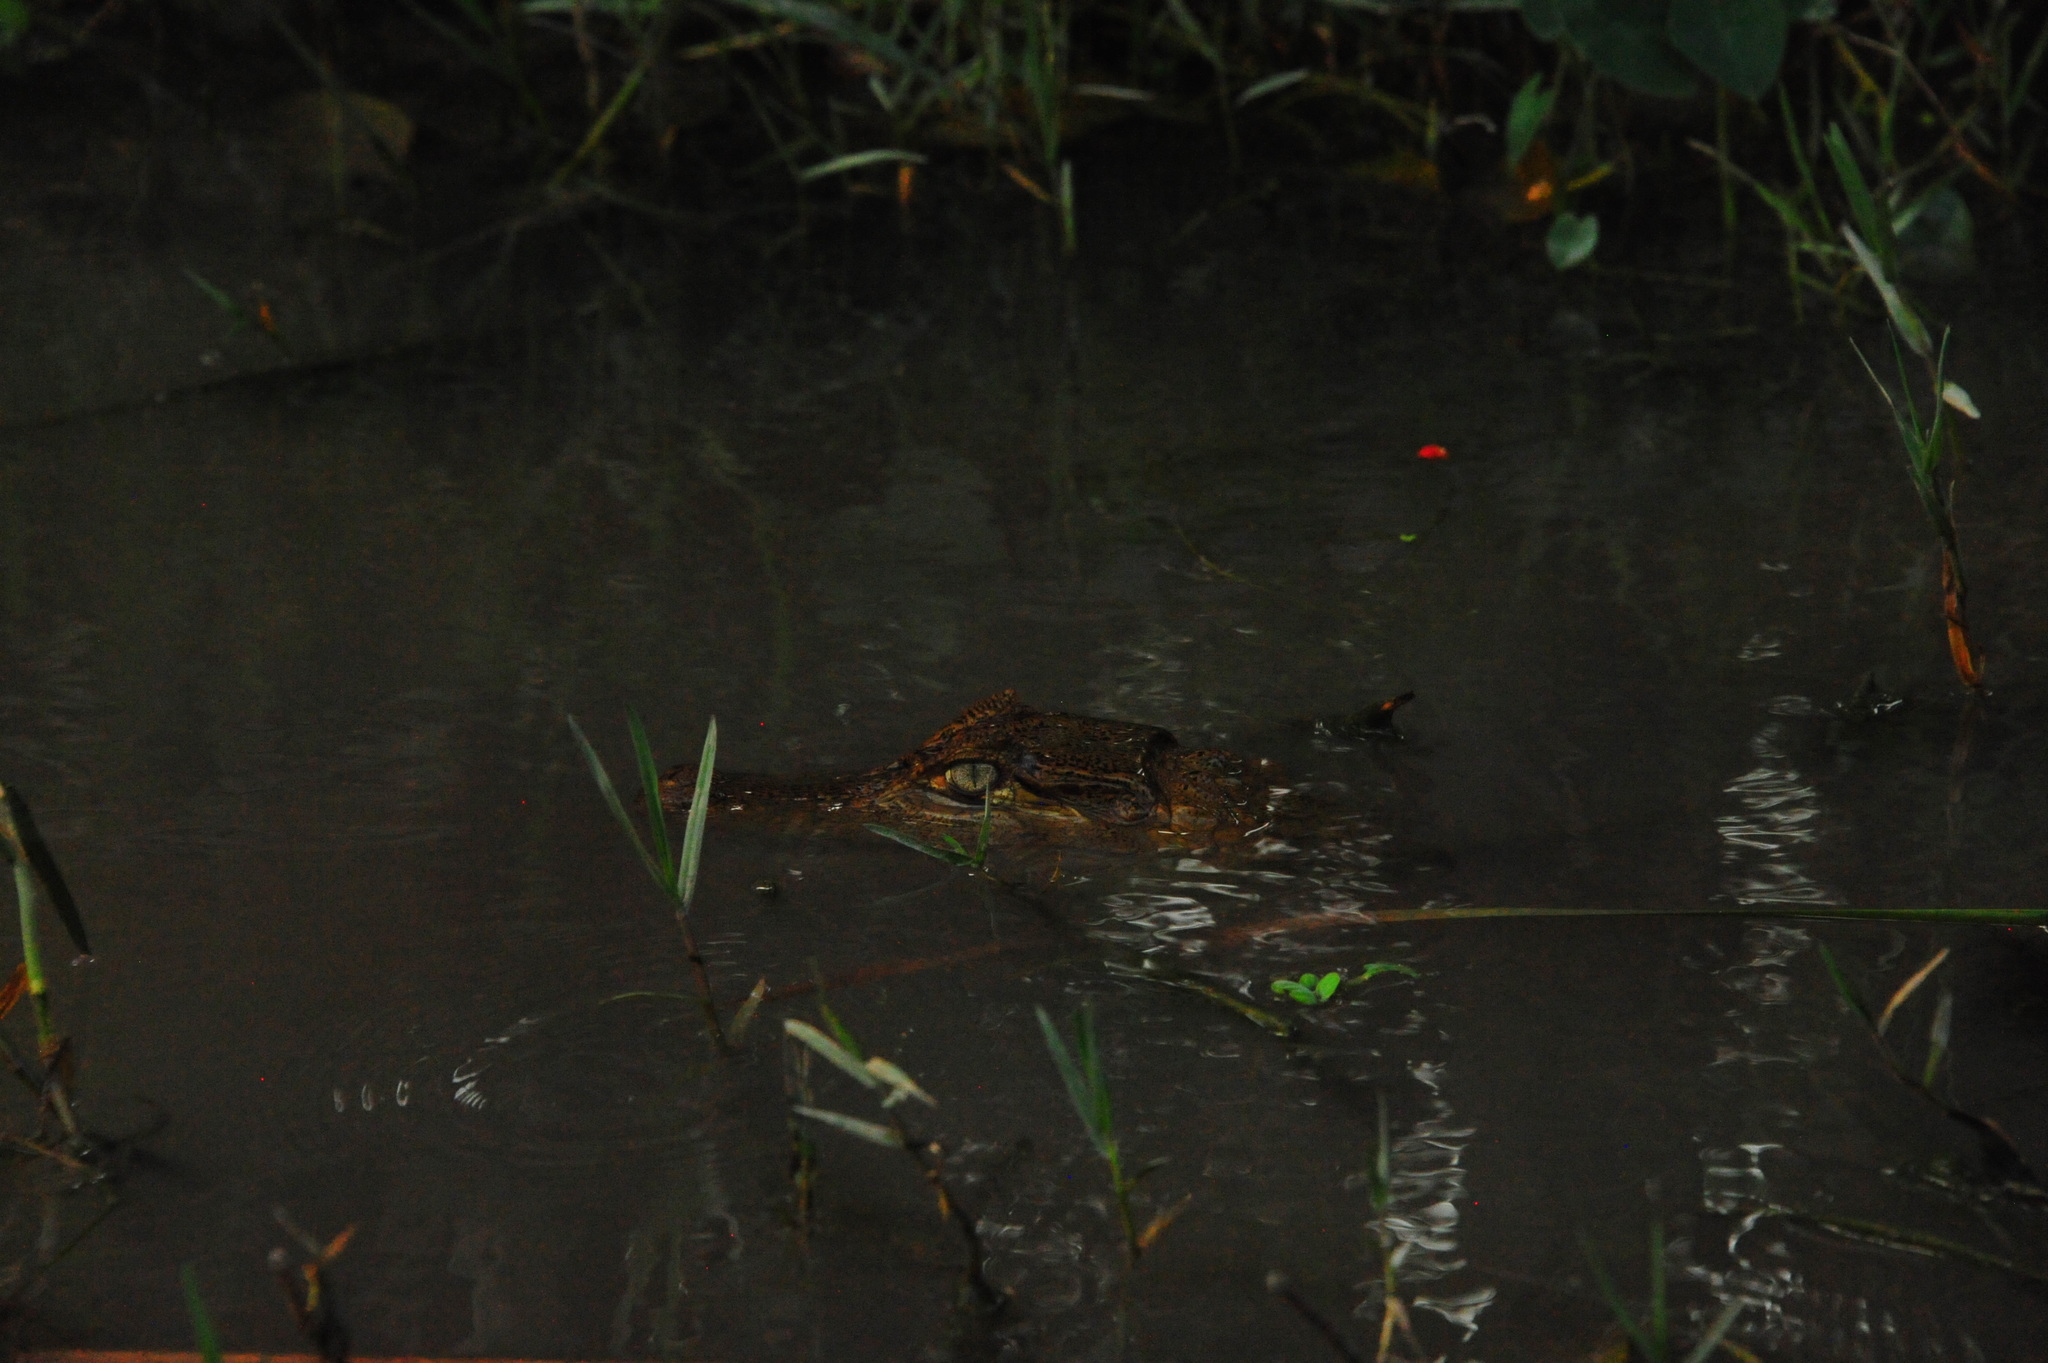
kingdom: Animalia
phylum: Chordata
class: Crocodylia
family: Alligatoridae
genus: Caiman
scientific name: Caiman crocodilus
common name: Common caiman
